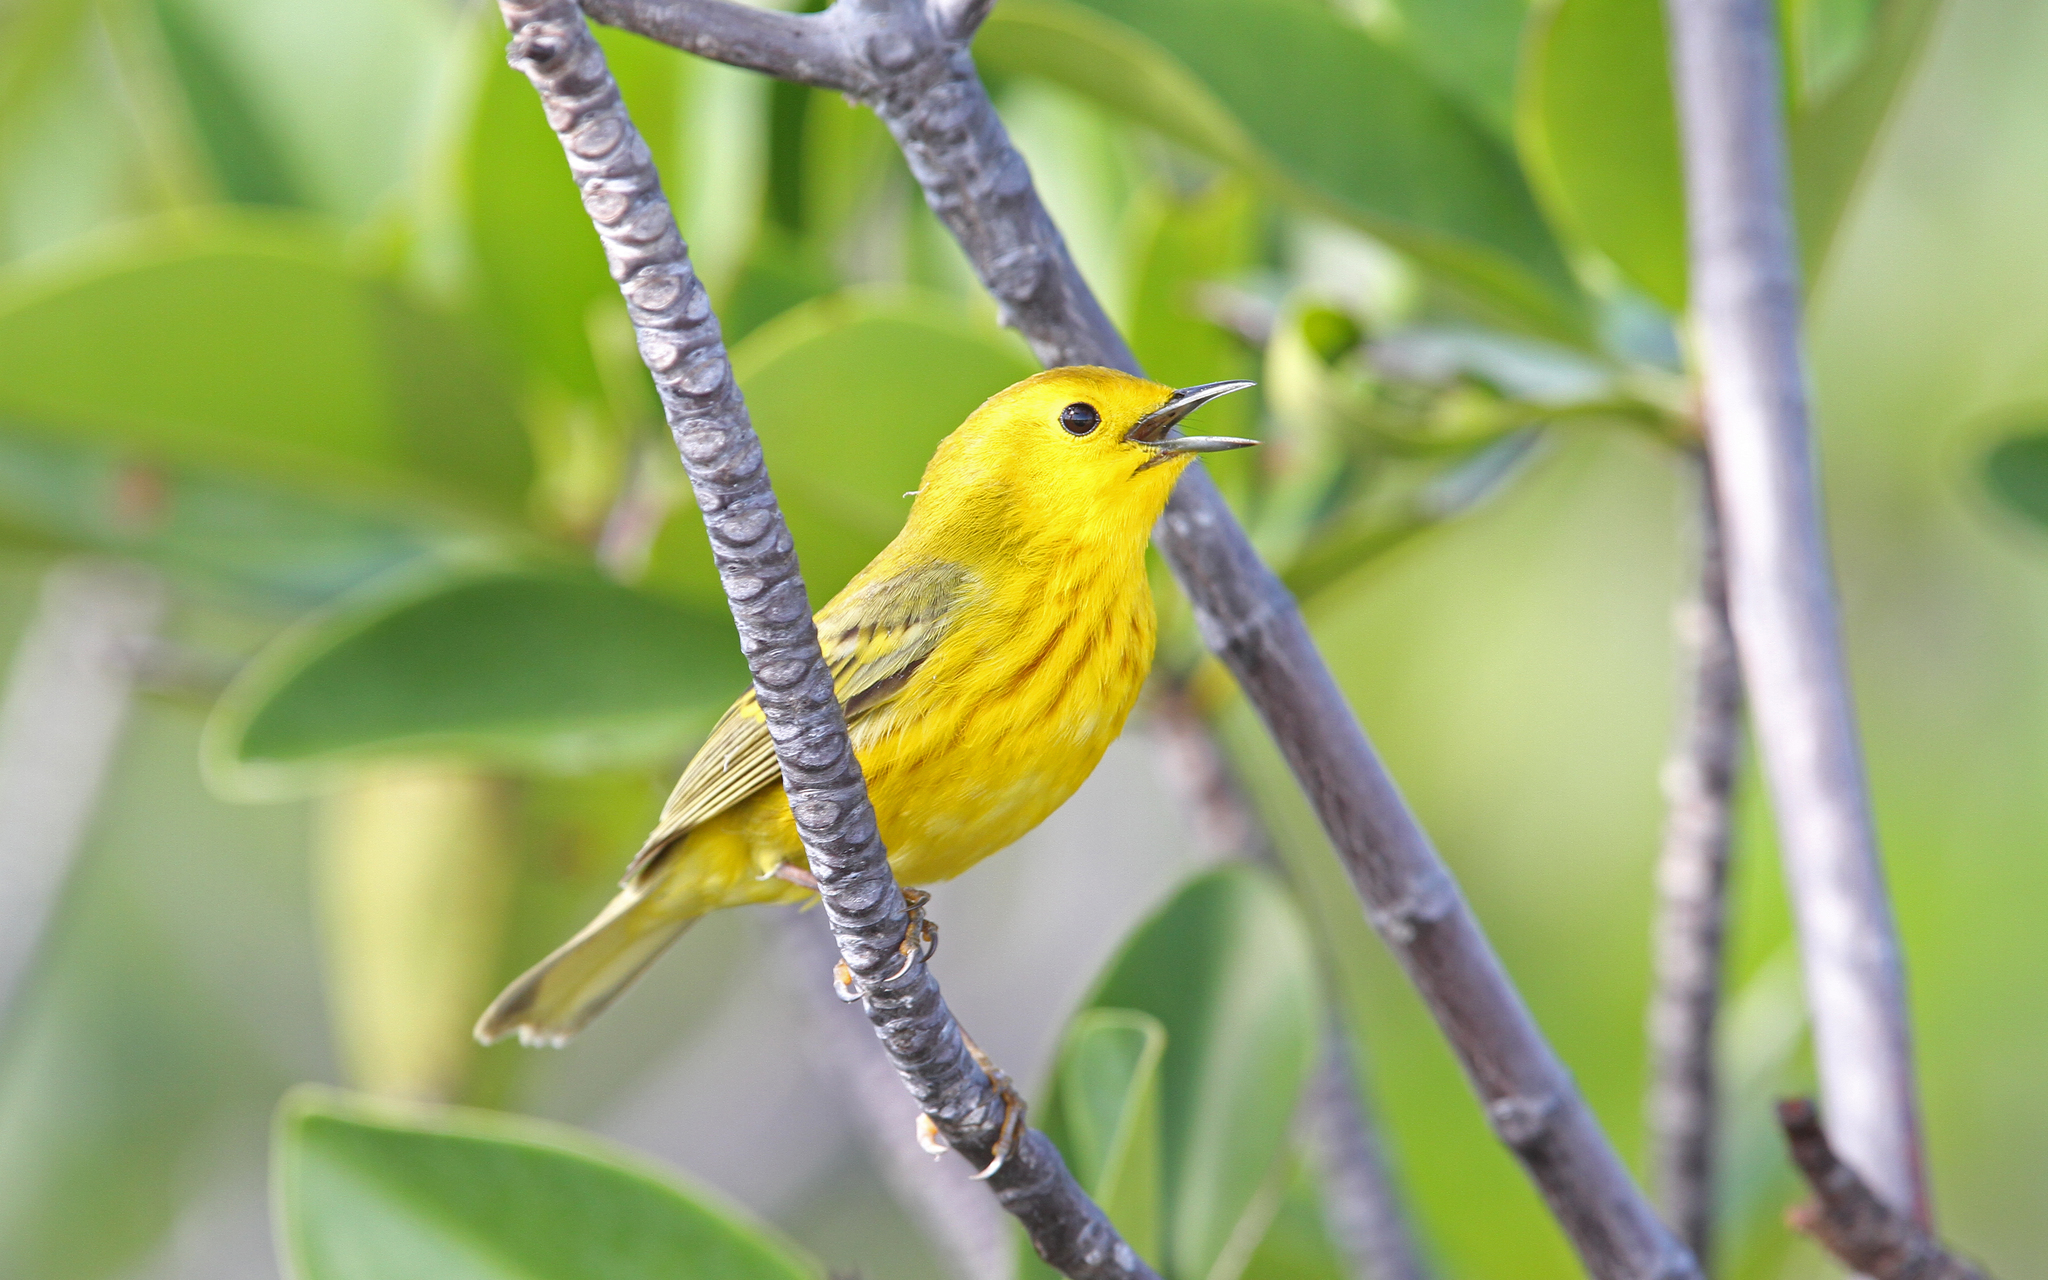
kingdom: Animalia
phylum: Chordata
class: Aves
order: Passeriformes
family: Parulidae
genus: Setophaga
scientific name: Setophaga petechia
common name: Yellow warbler
